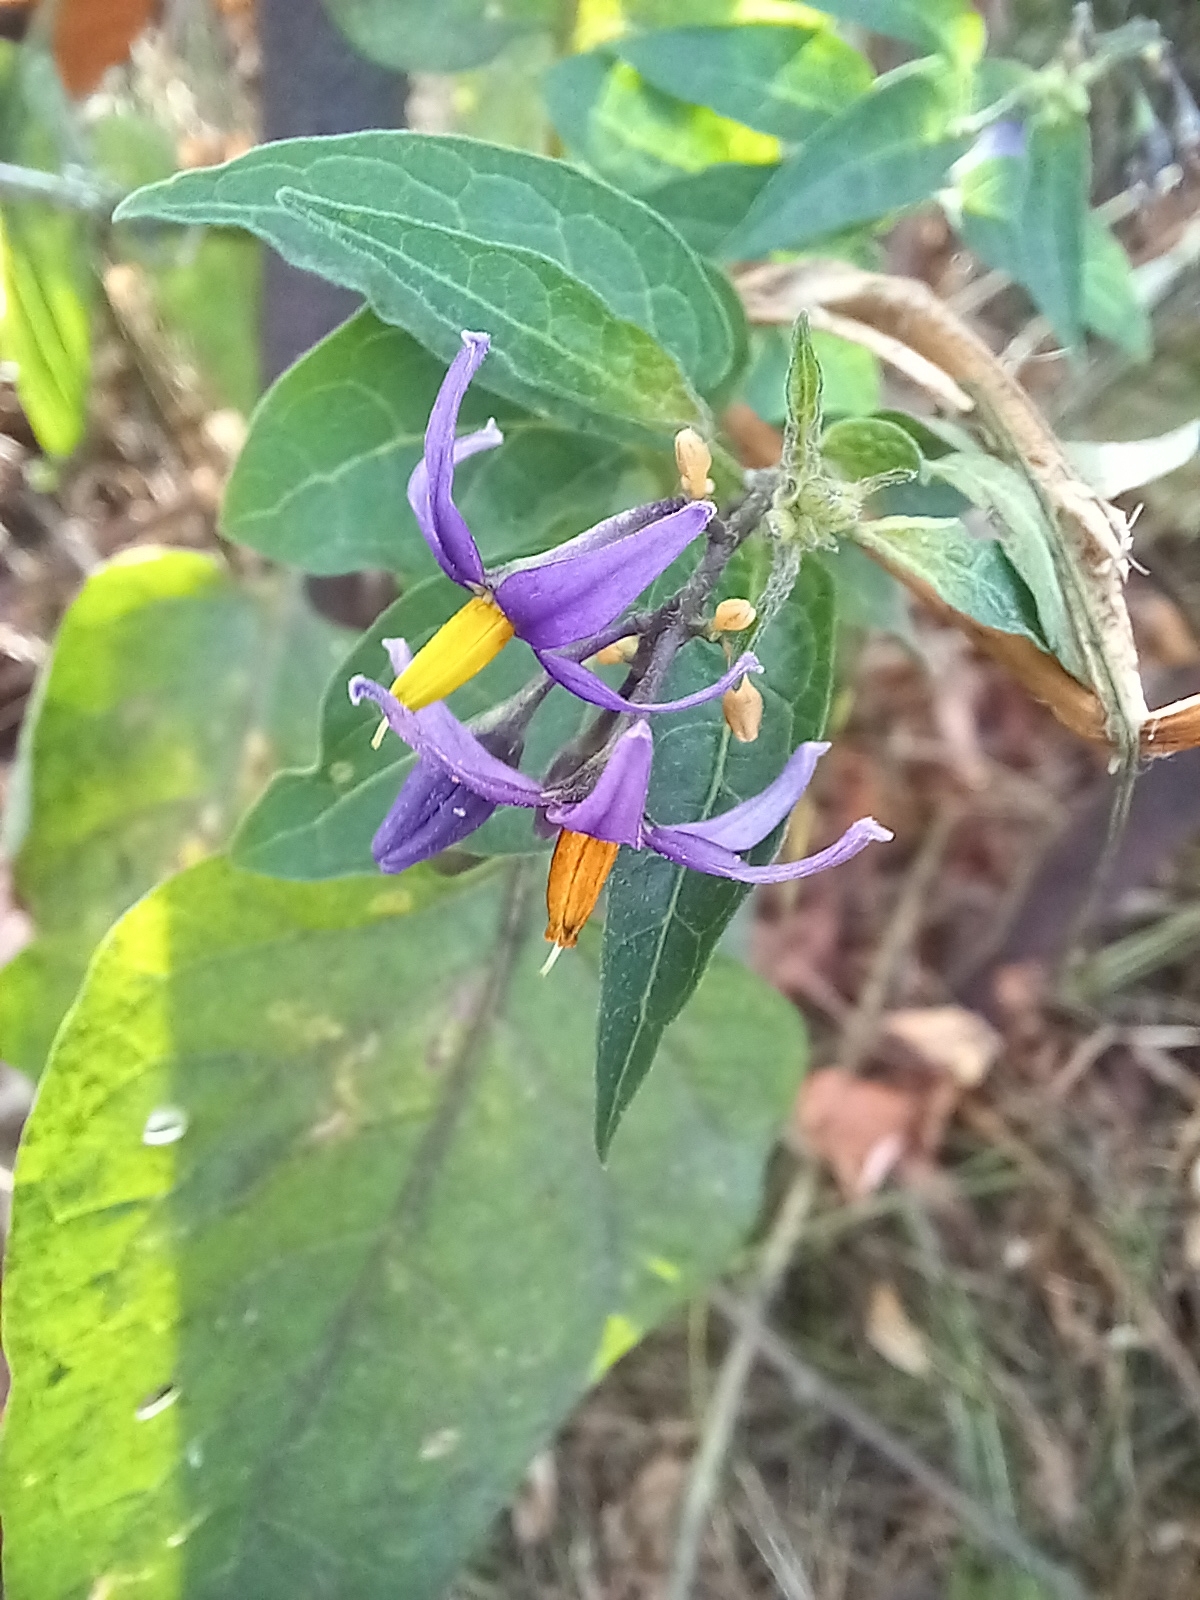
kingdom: Plantae
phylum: Tracheophyta
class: Magnoliopsida
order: Solanales
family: Solanaceae
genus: Solanum
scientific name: Solanum dulcamara
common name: Climbing nightshade
